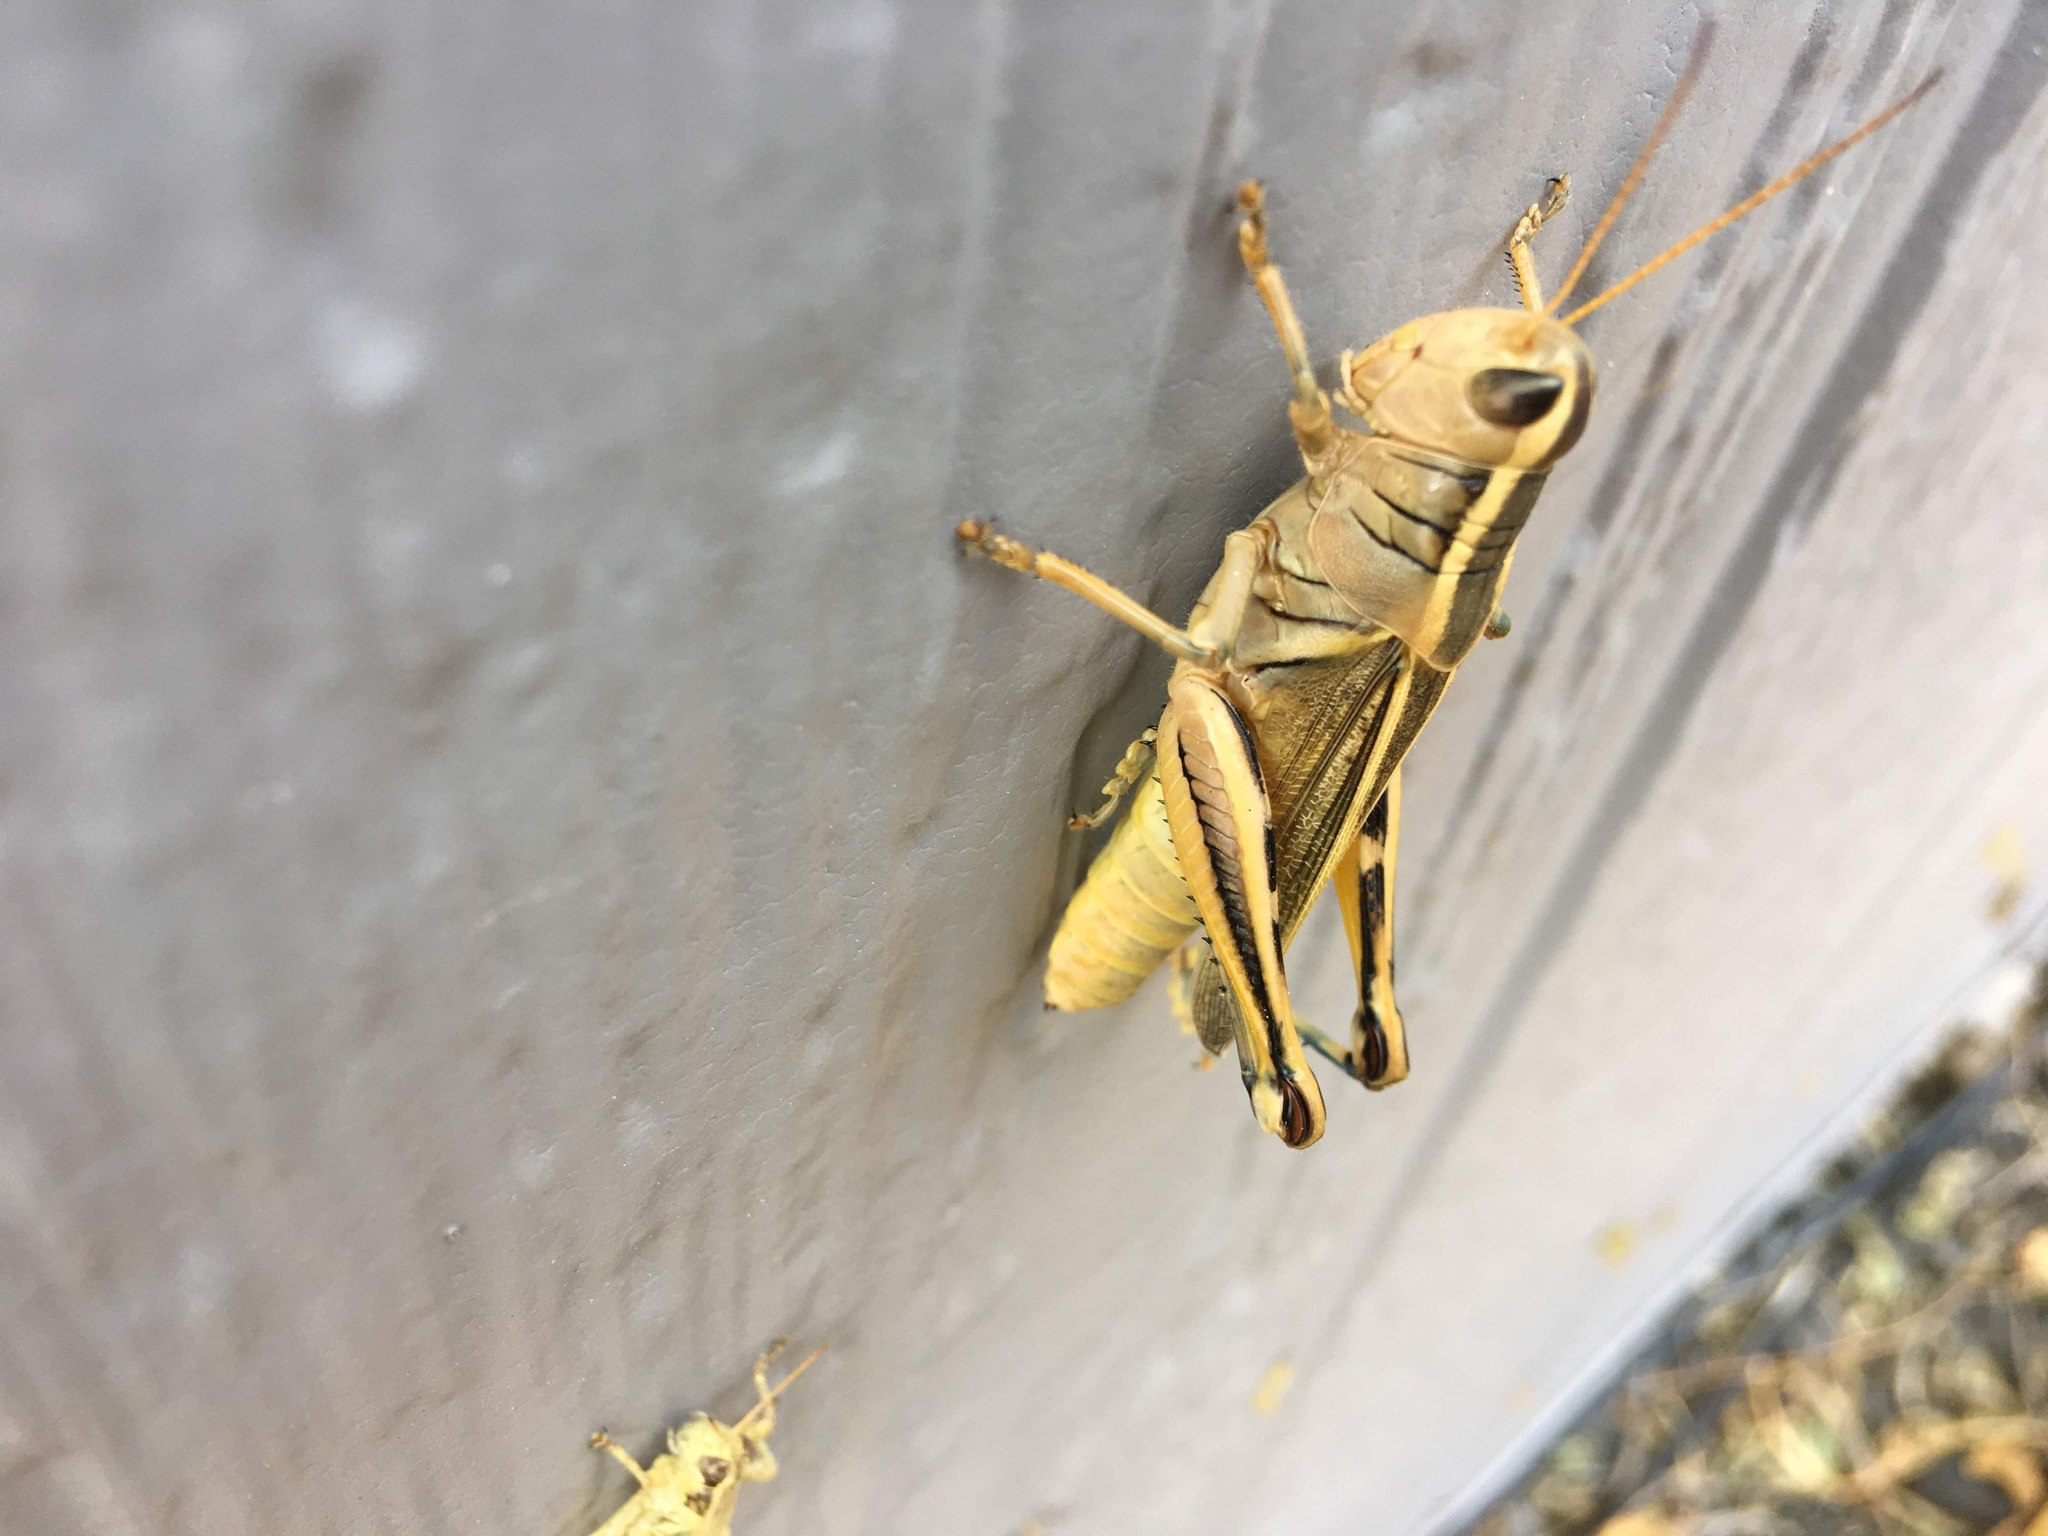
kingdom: Animalia
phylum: Arthropoda
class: Insecta
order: Orthoptera
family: Acrididae
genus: Melanoplus
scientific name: Melanoplus bivittatus
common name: Two-striped grasshopper
